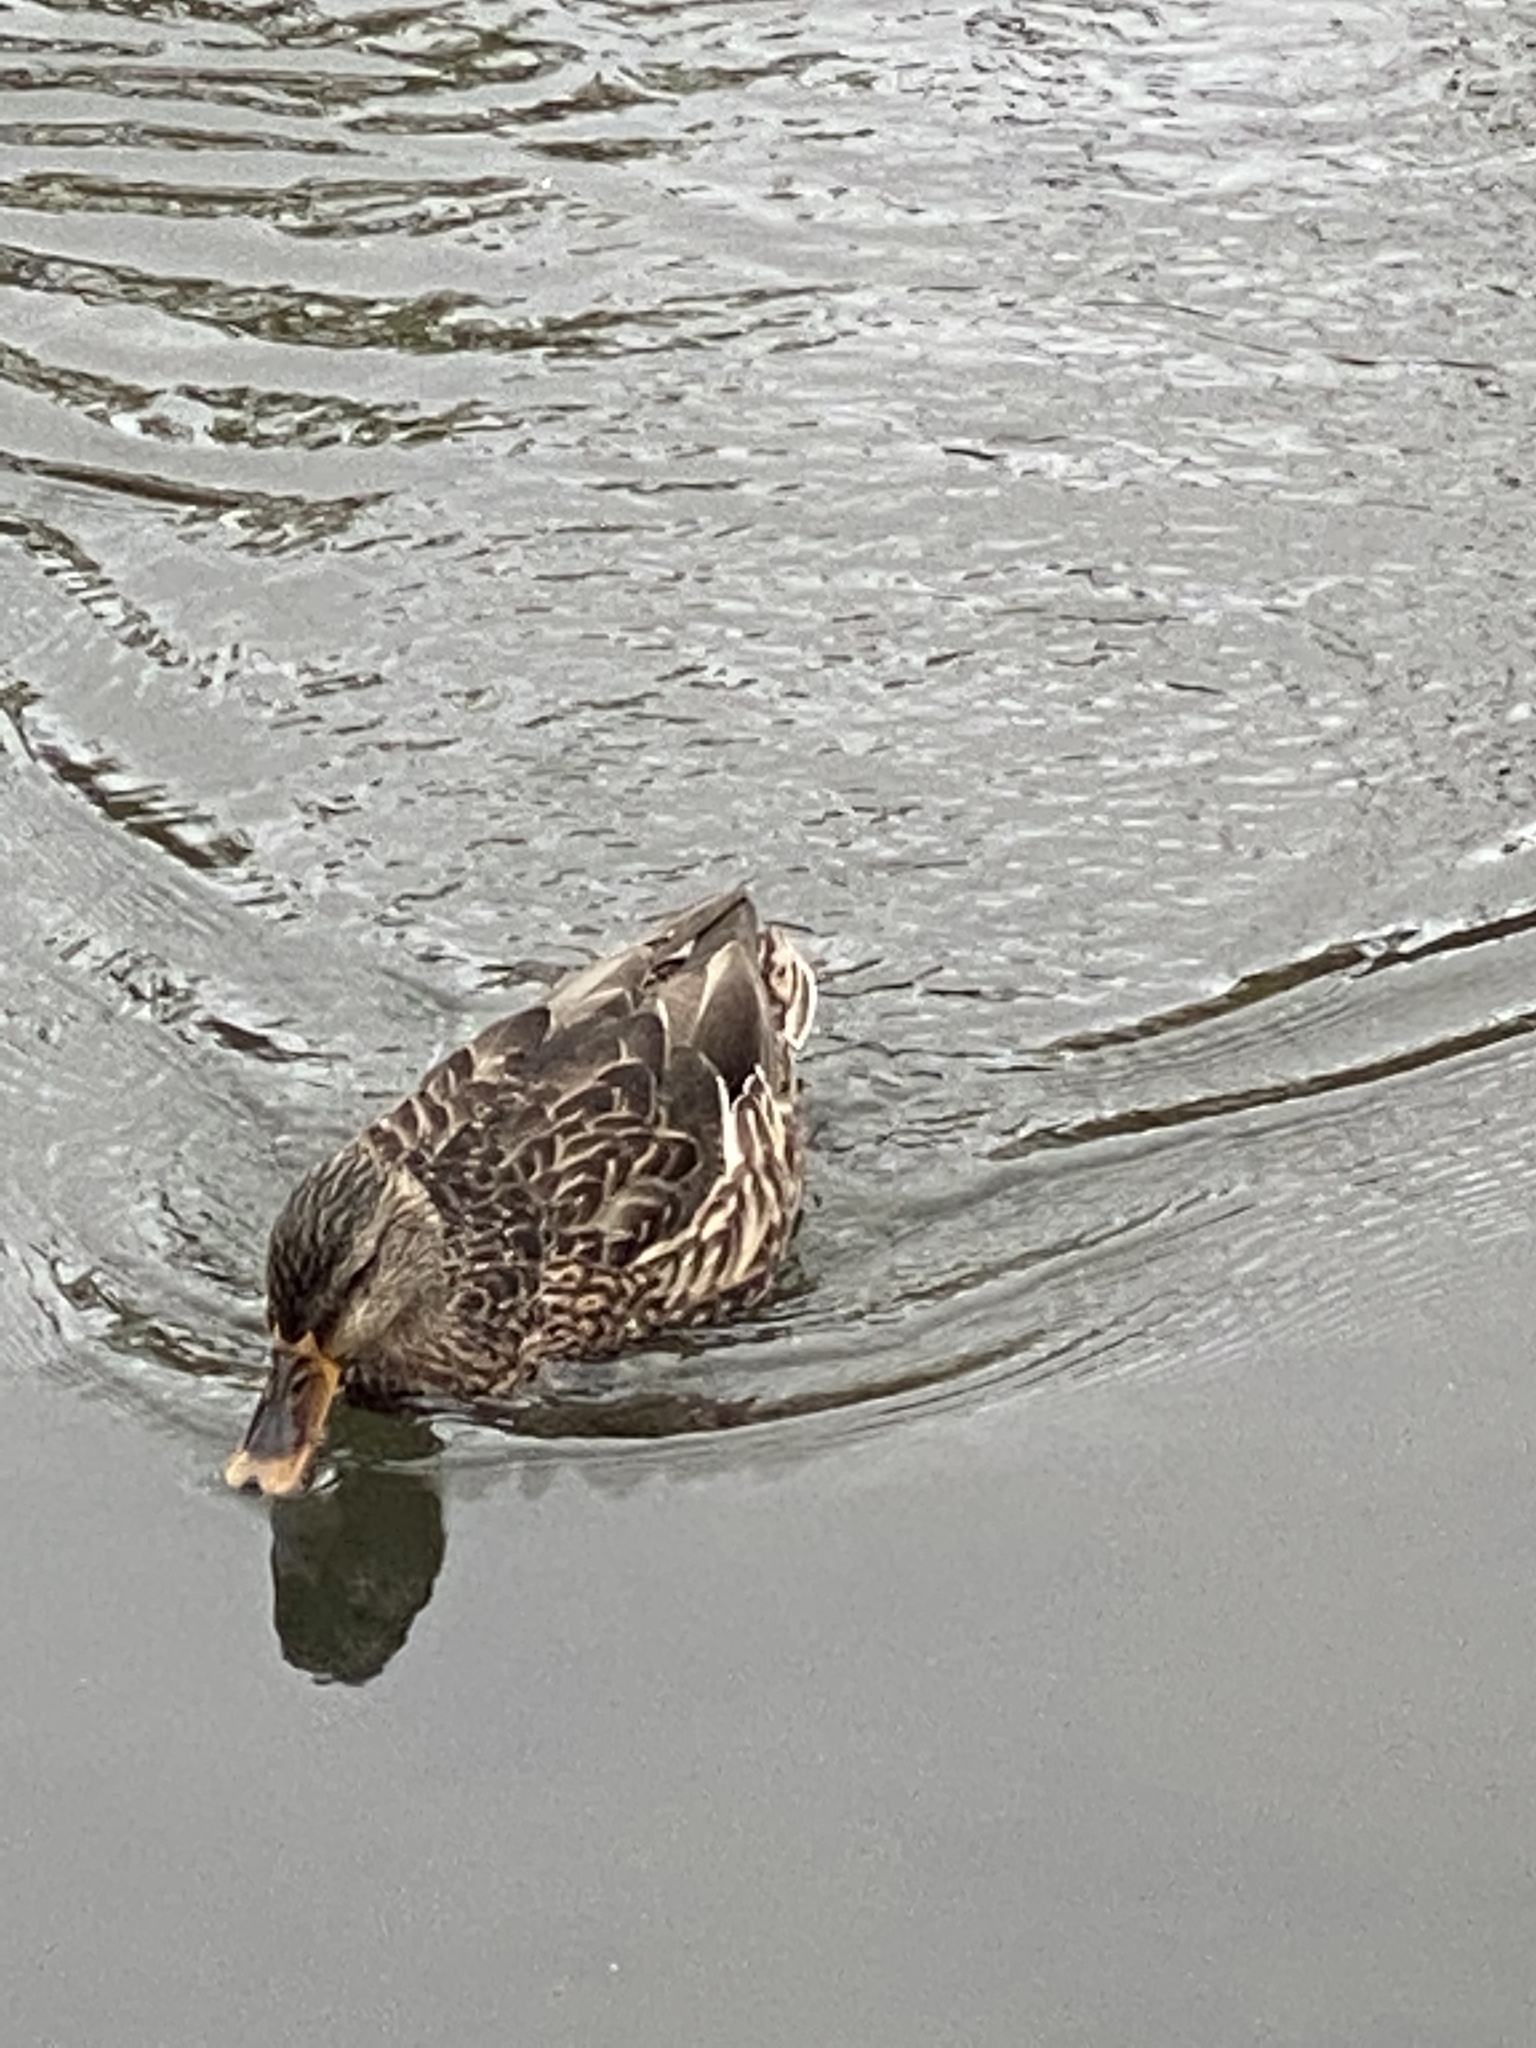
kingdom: Animalia
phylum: Chordata
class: Aves
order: Anseriformes
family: Anatidae
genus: Anas
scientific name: Anas platyrhynchos
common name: Mallard
